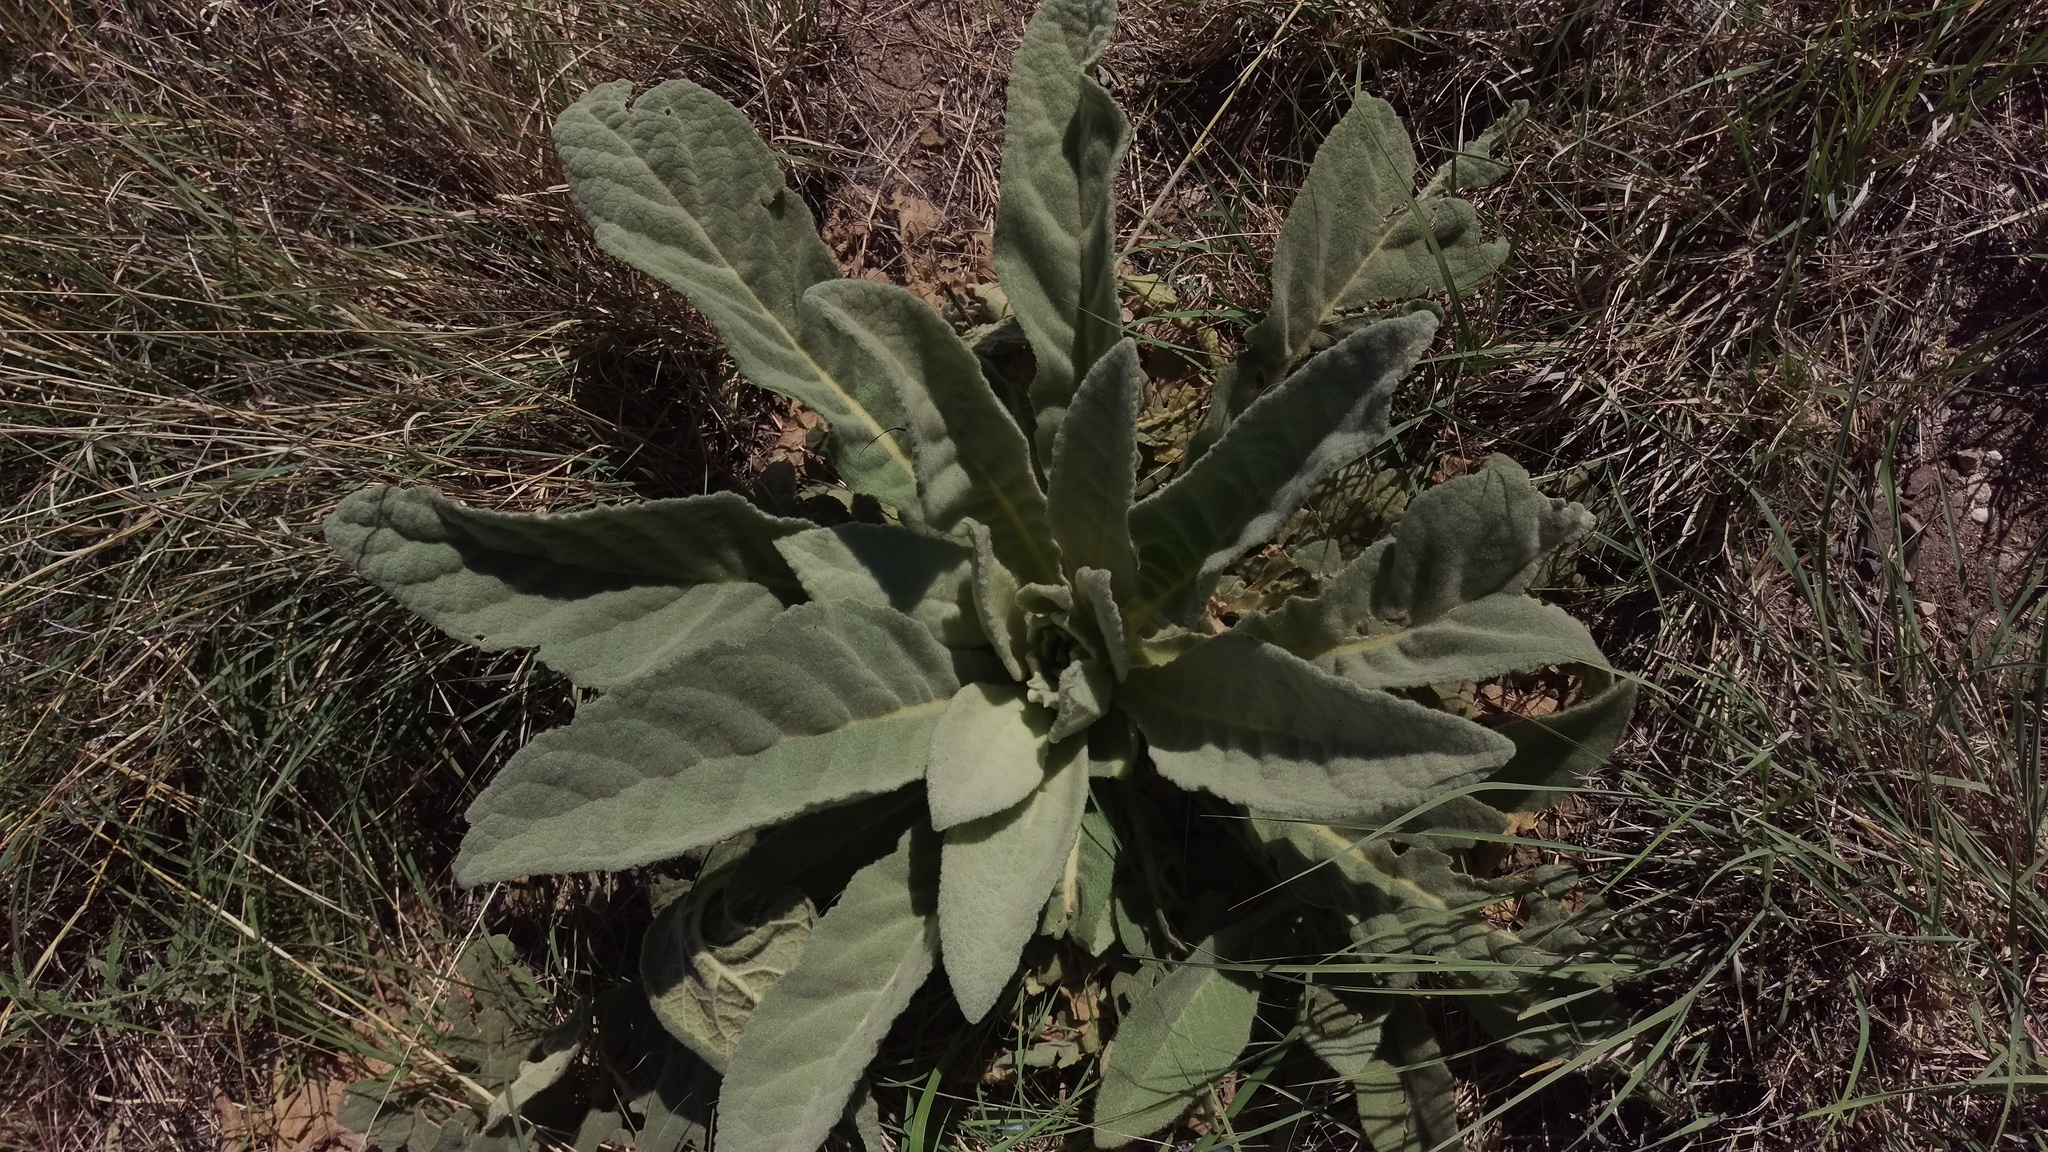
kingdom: Plantae
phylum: Tracheophyta
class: Magnoliopsida
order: Lamiales
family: Scrophulariaceae
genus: Verbascum
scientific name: Verbascum thapsus
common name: Common mullein
